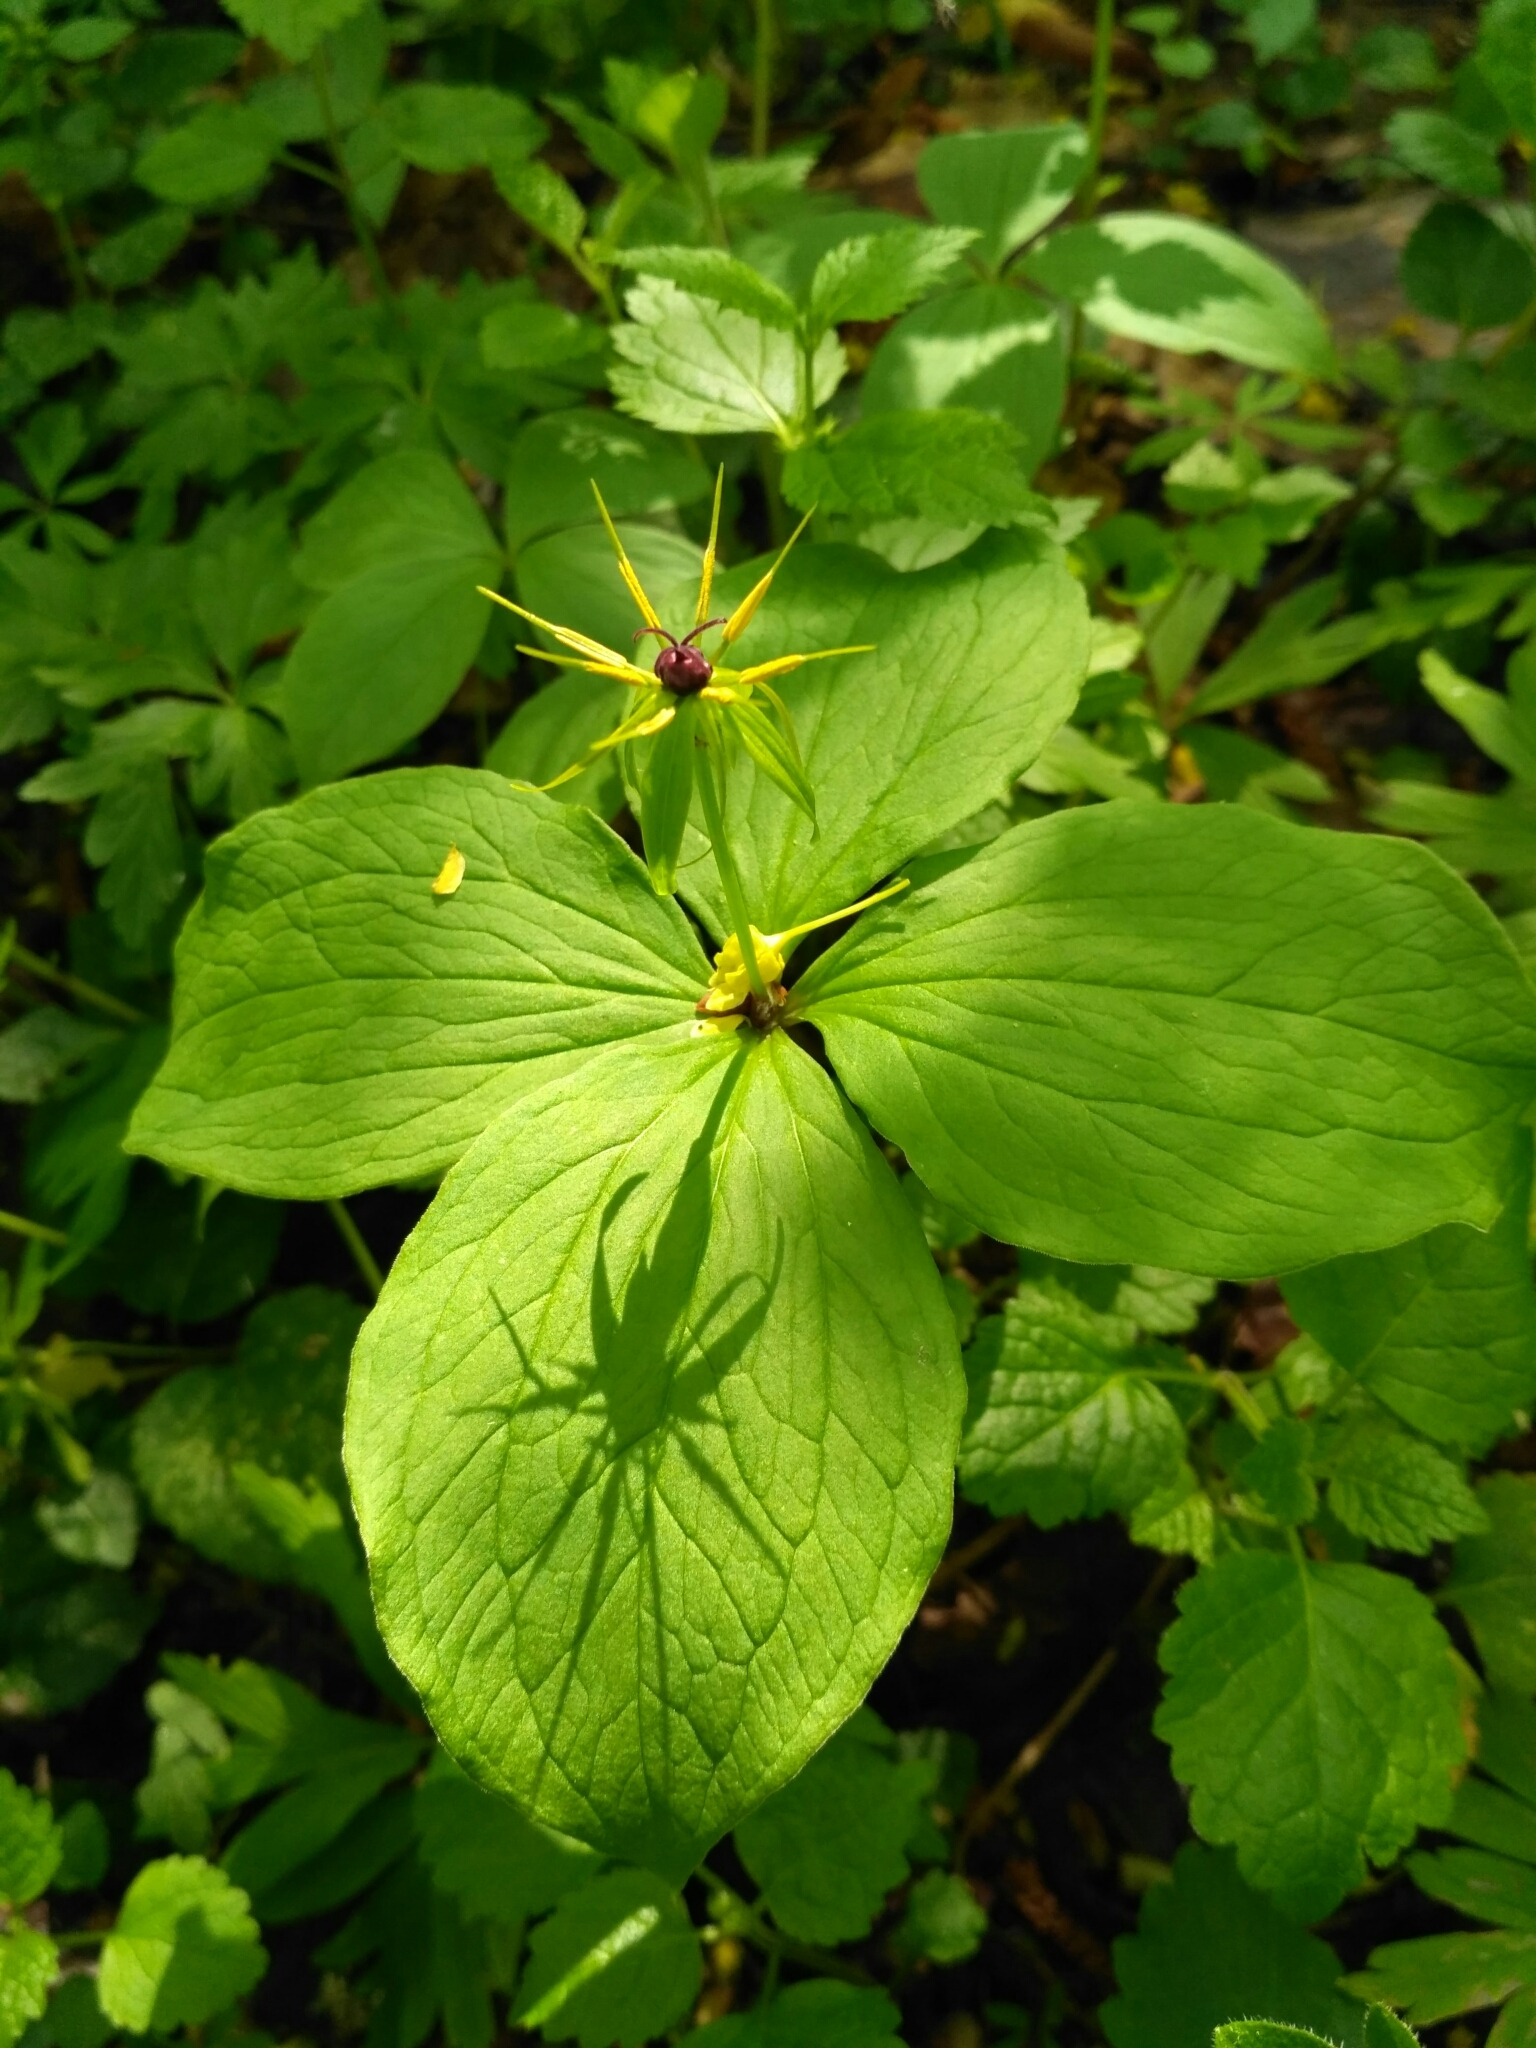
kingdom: Plantae
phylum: Tracheophyta
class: Liliopsida
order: Liliales
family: Melanthiaceae
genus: Paris
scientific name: Paris quadrifolia
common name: Herb-paris
